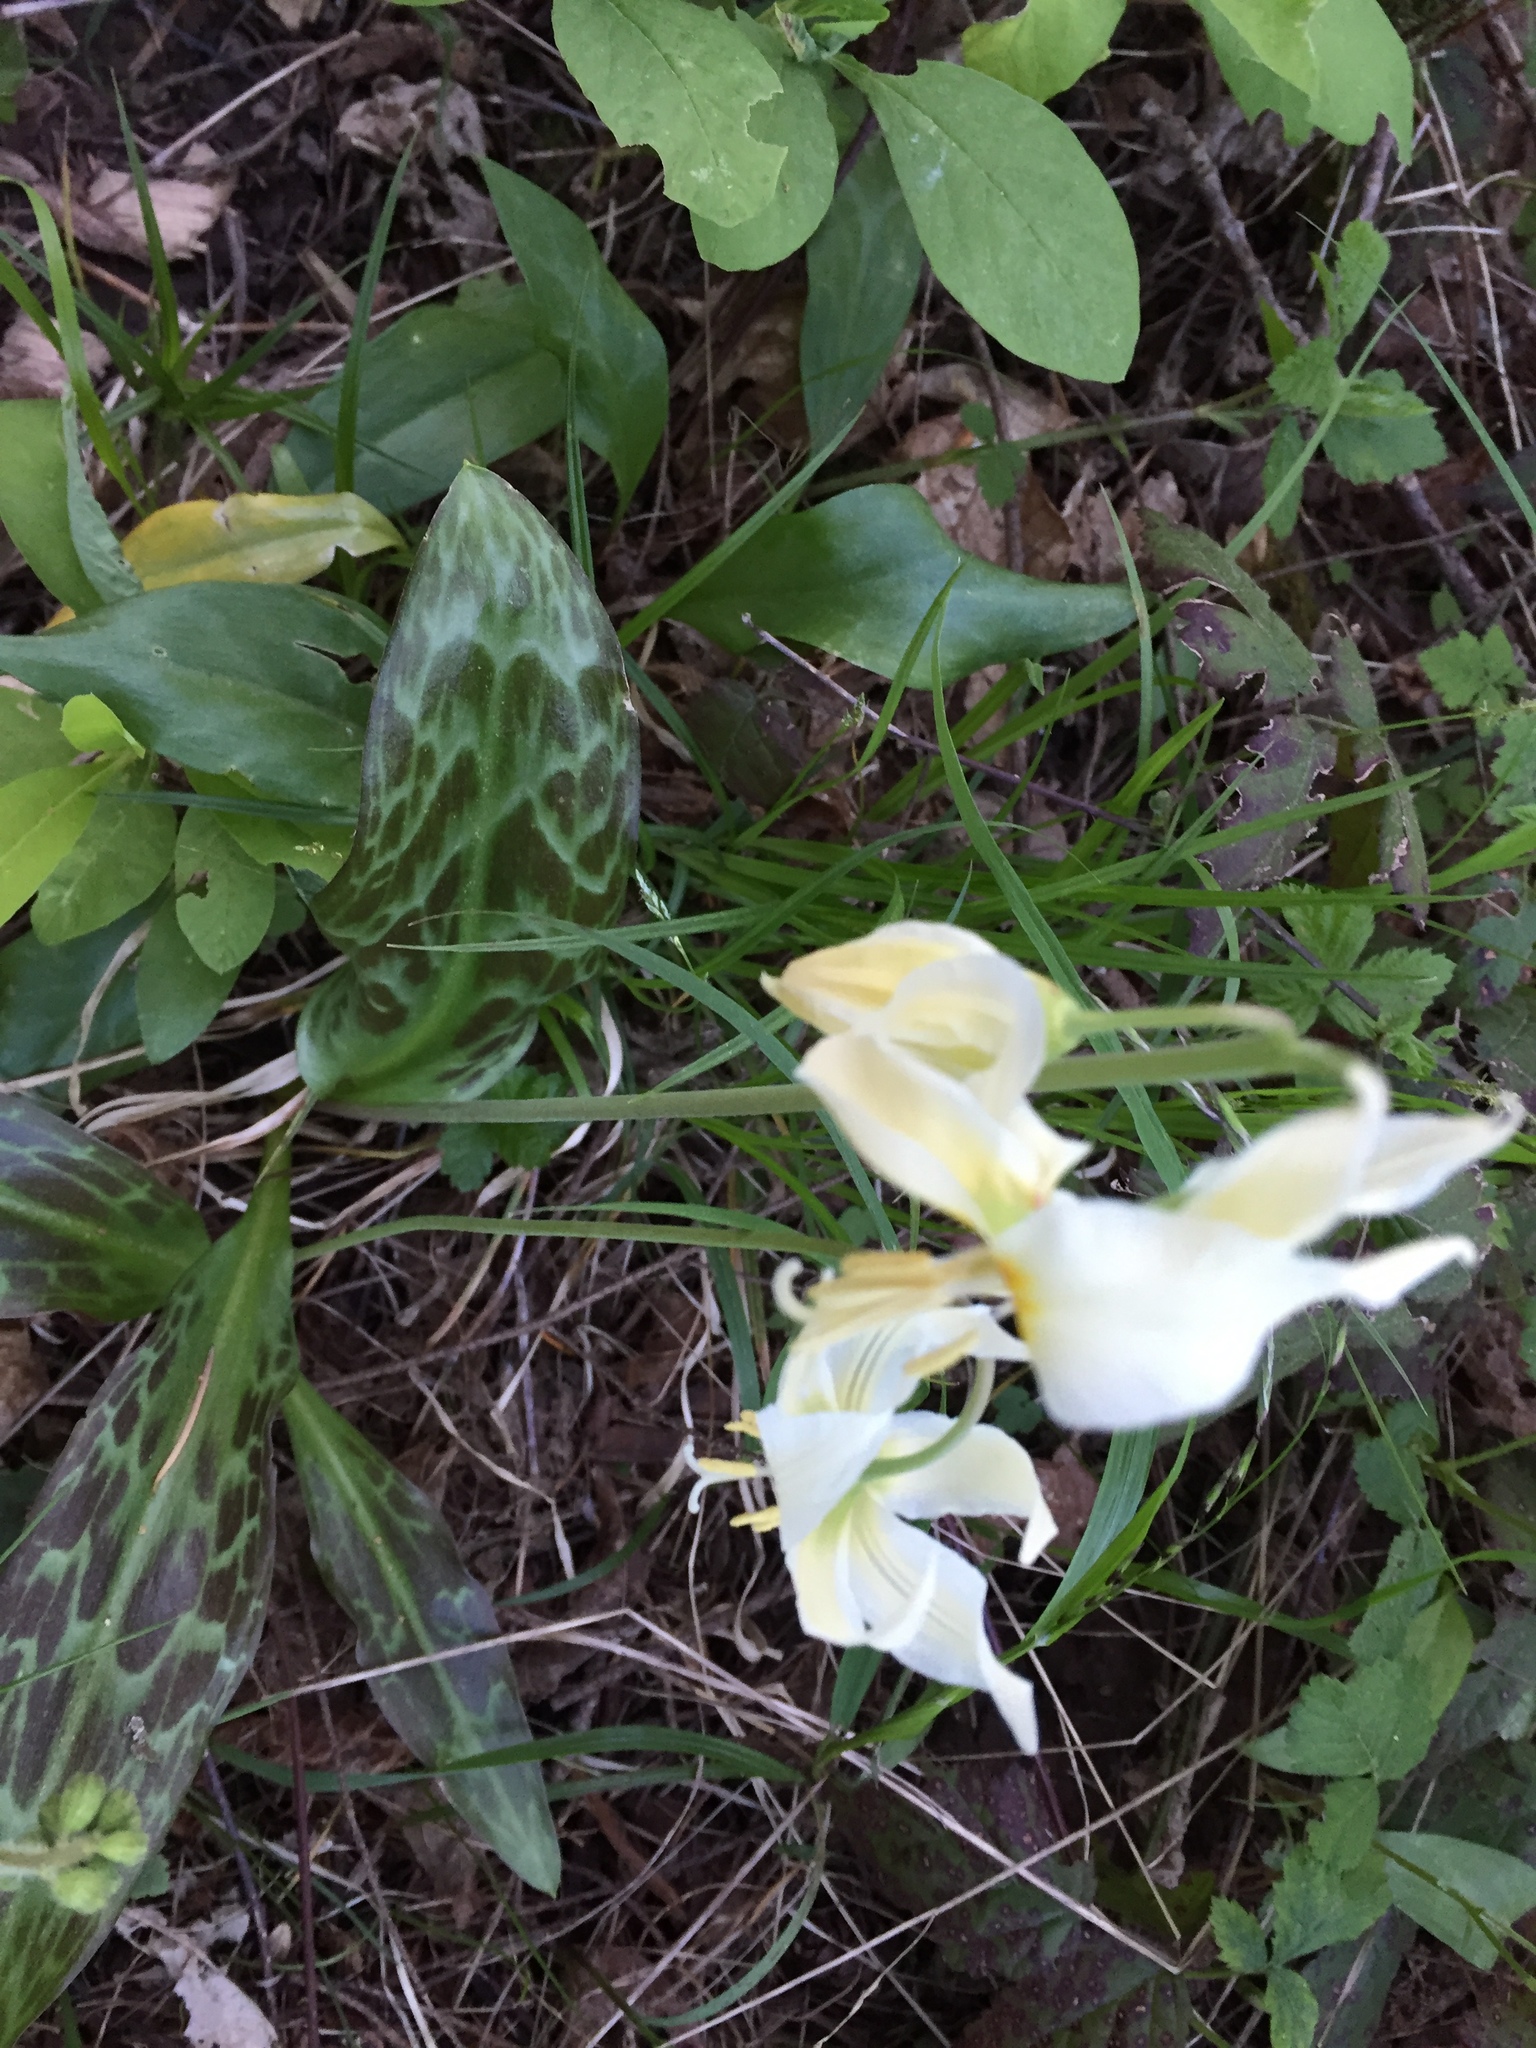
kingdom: Plantae
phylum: Tracheophyta
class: Liliopsida
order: Liliales
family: Liliaceae
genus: Erythronium
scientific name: Erythronium oregonum
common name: Giant adder's-tongue
